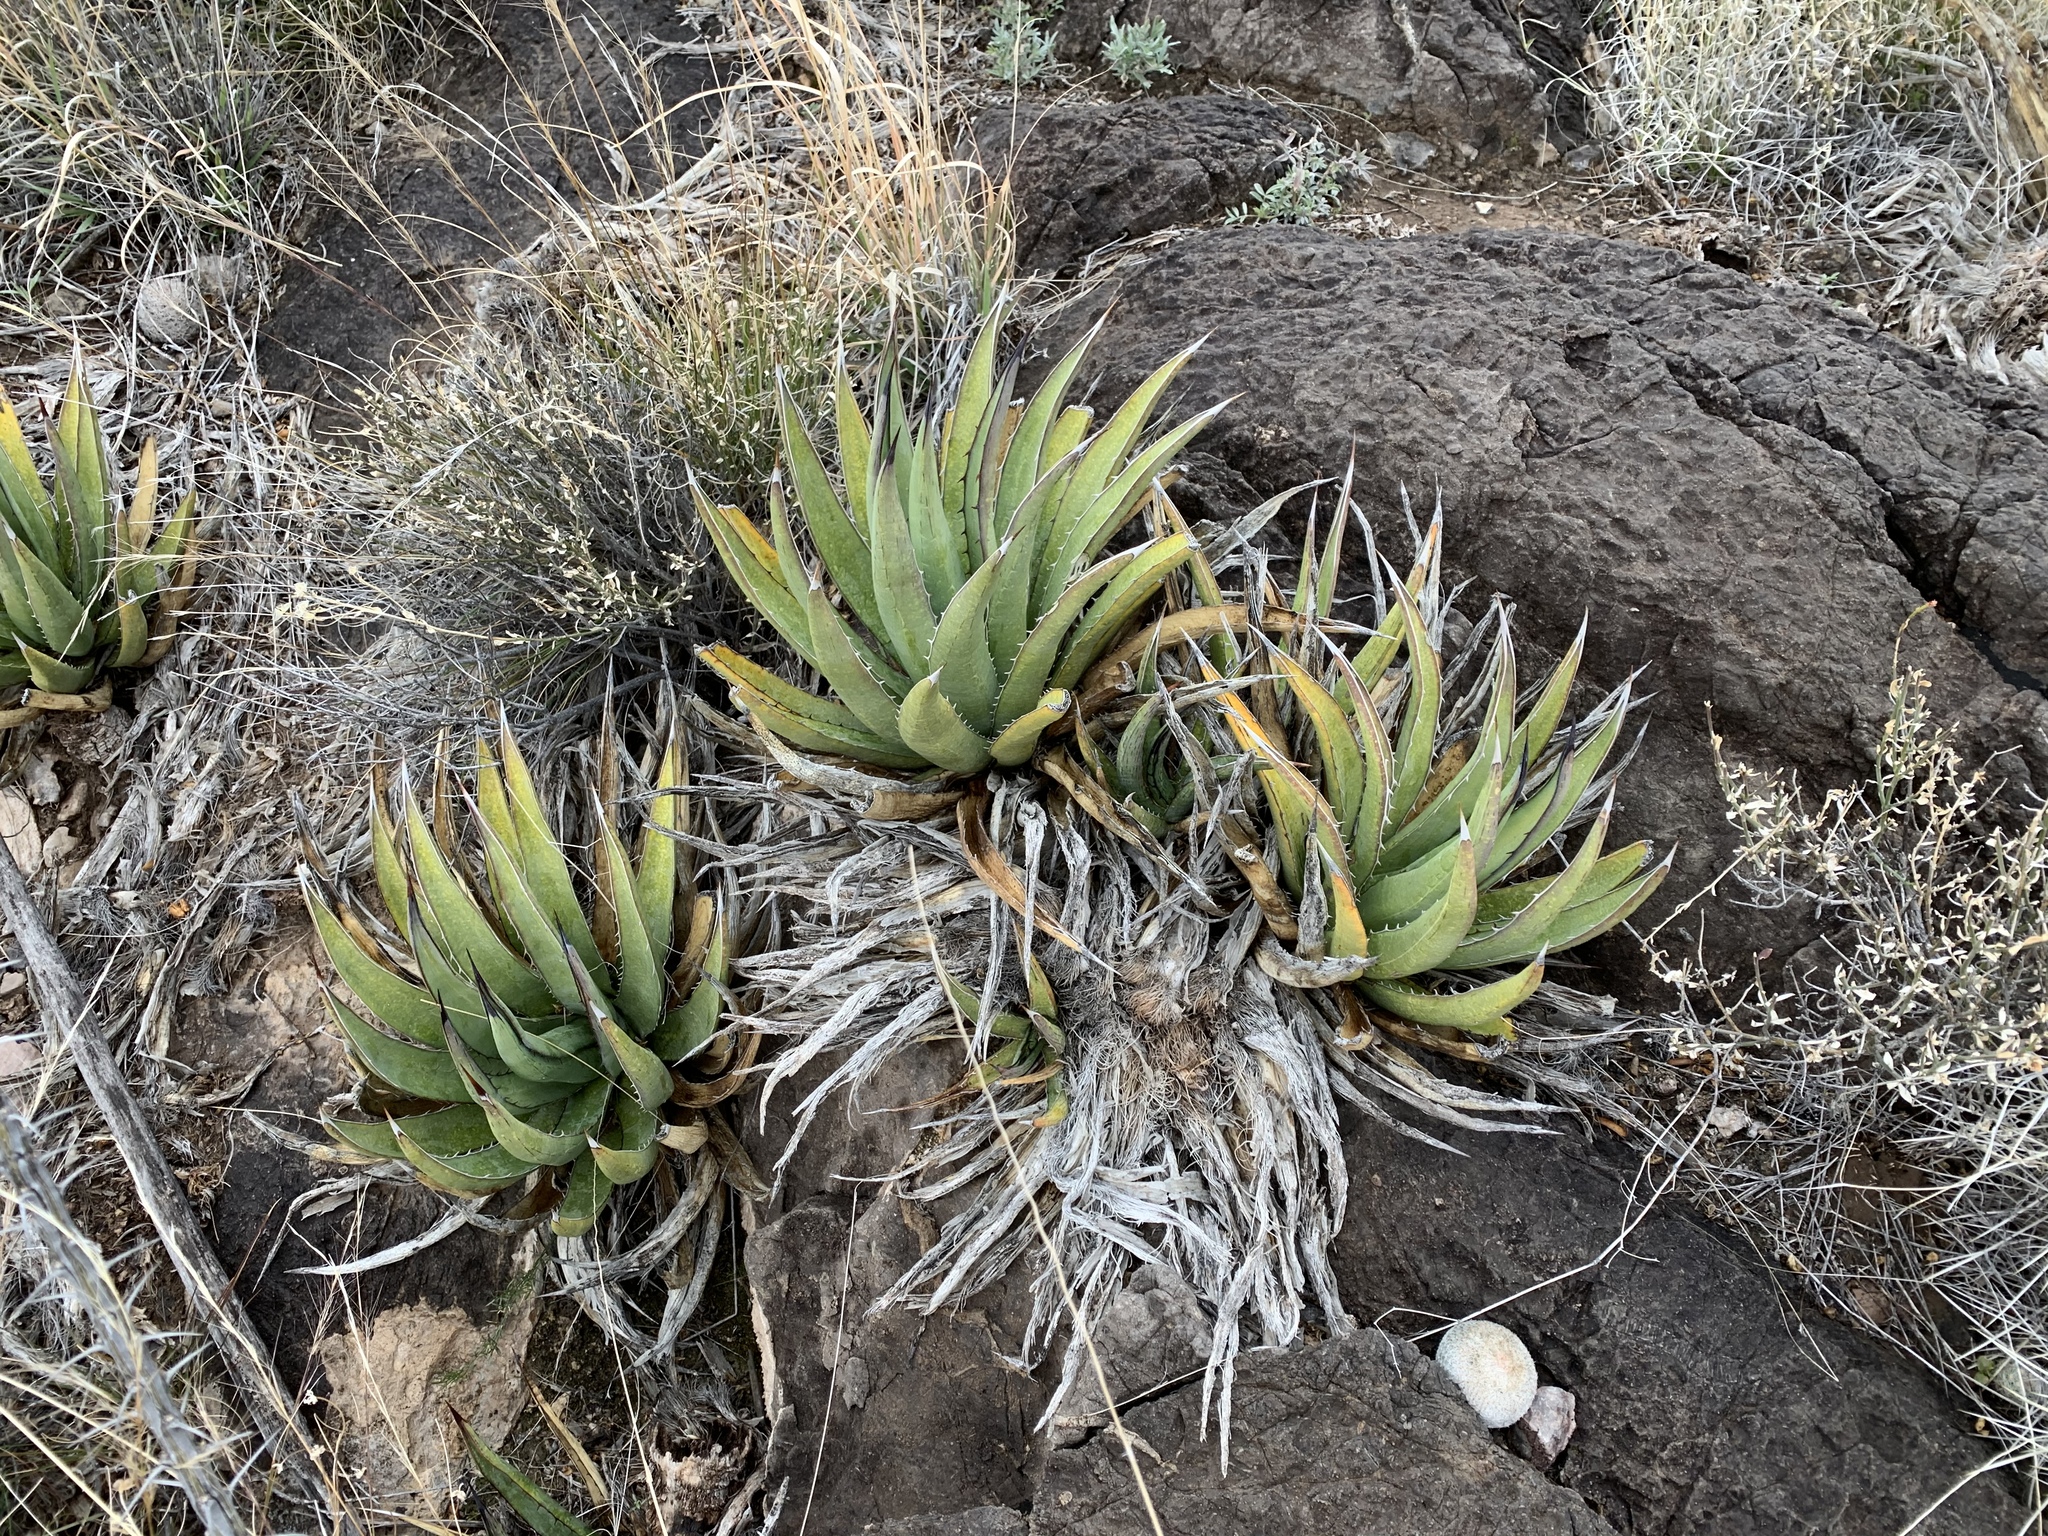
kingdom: Plantae
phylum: Tracheophyta
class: Liliopsida
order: Asparagales
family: Asparagaceae
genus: Agave
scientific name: Agave lechuguilla
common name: Lecheguilla agave
